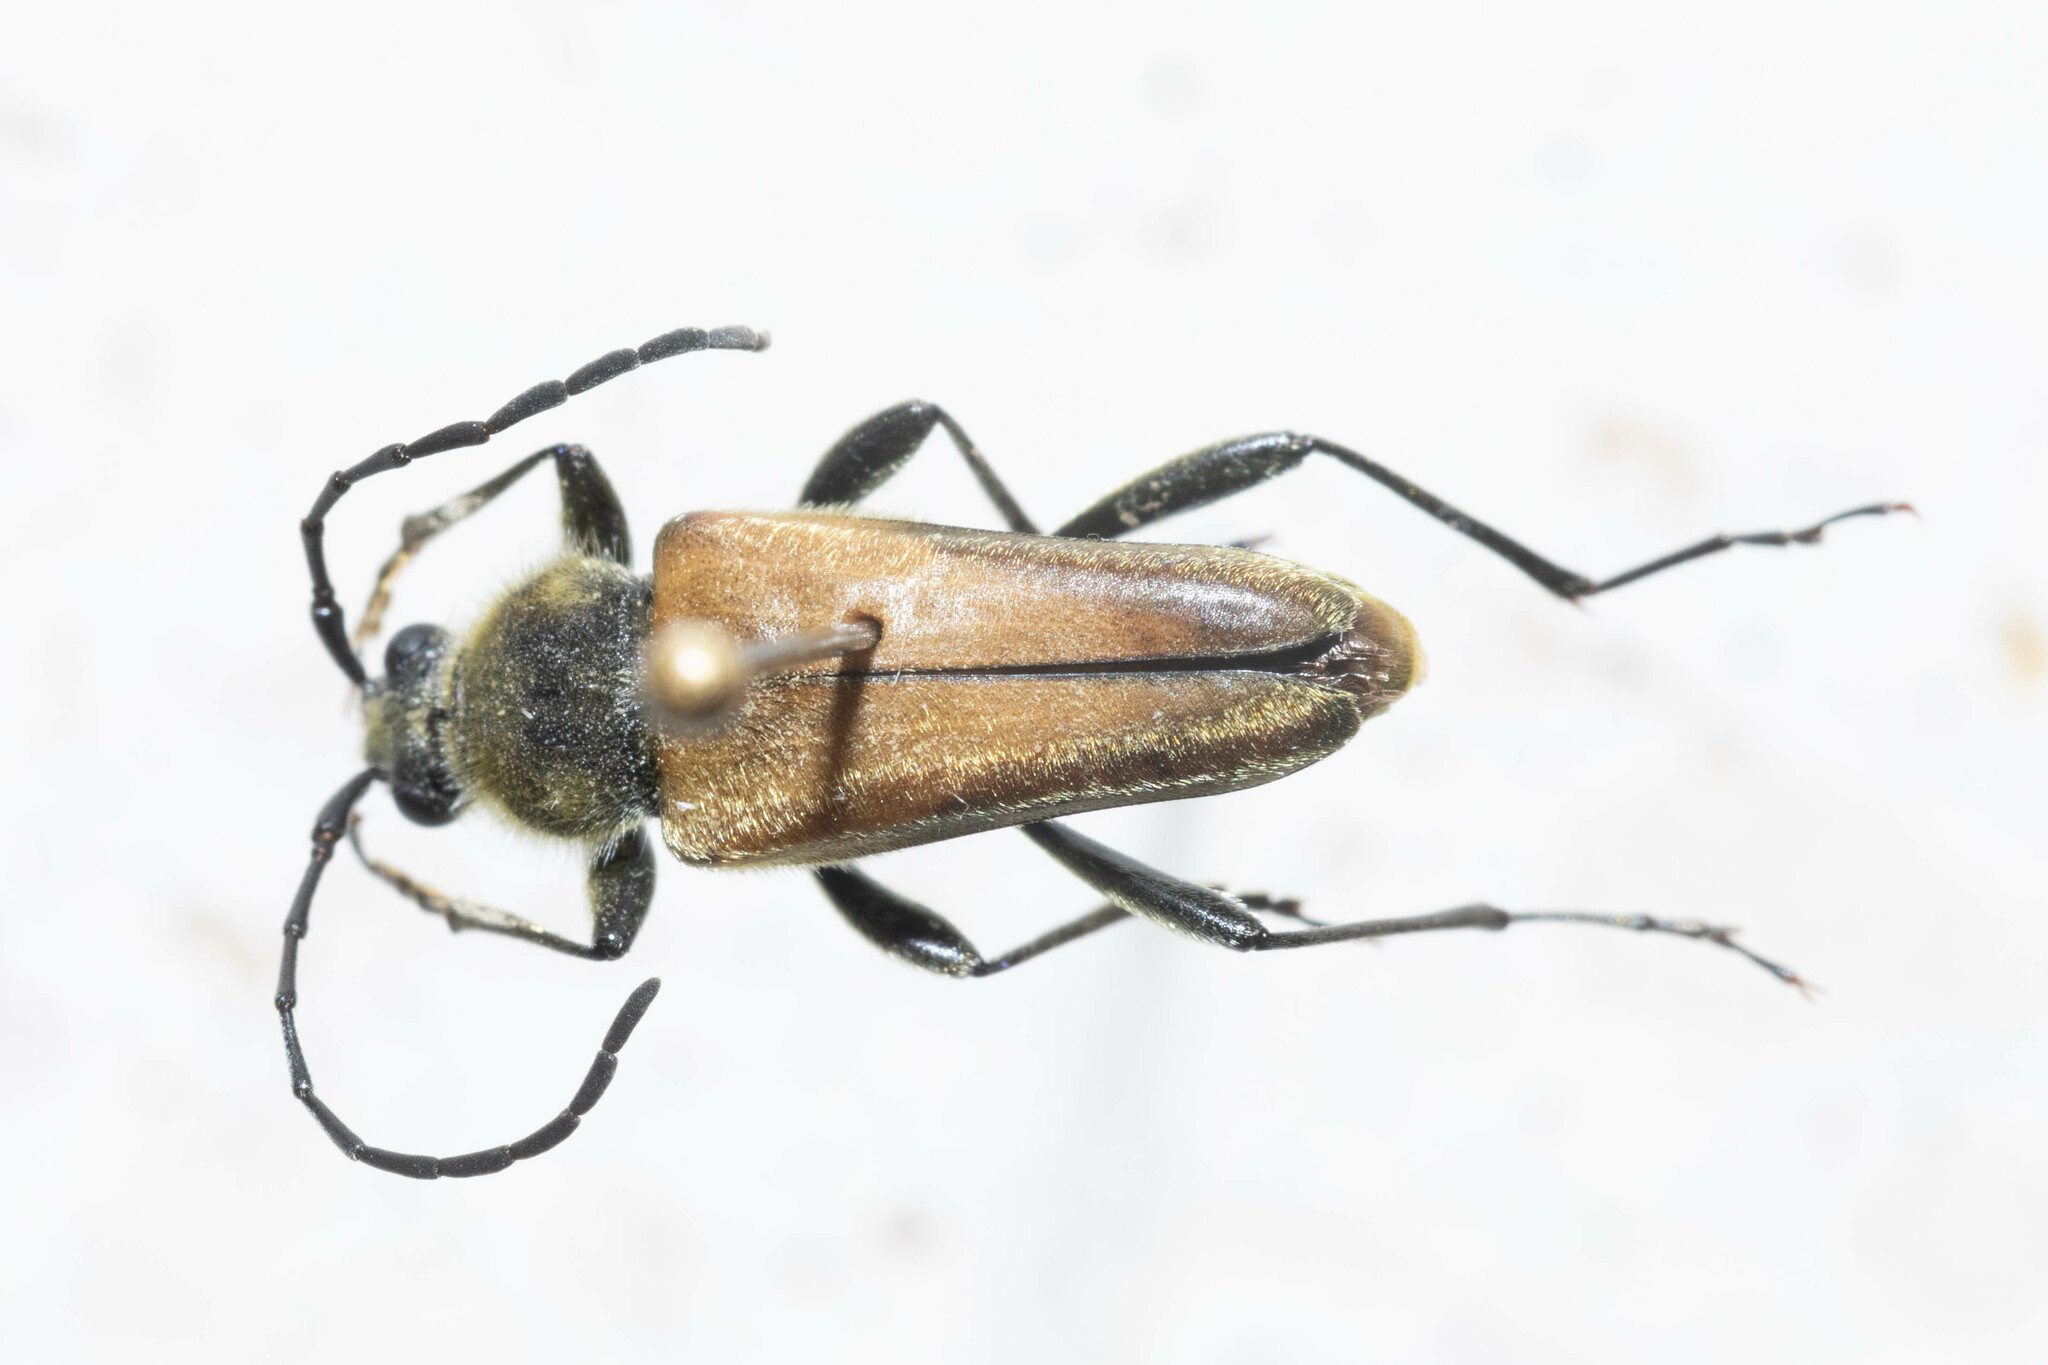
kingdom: Animalia
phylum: Arthropoda
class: Insecta
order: Coleoptera
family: Cerambycidae
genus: Cosmosalia
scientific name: Cosmosalia chrysocoma
